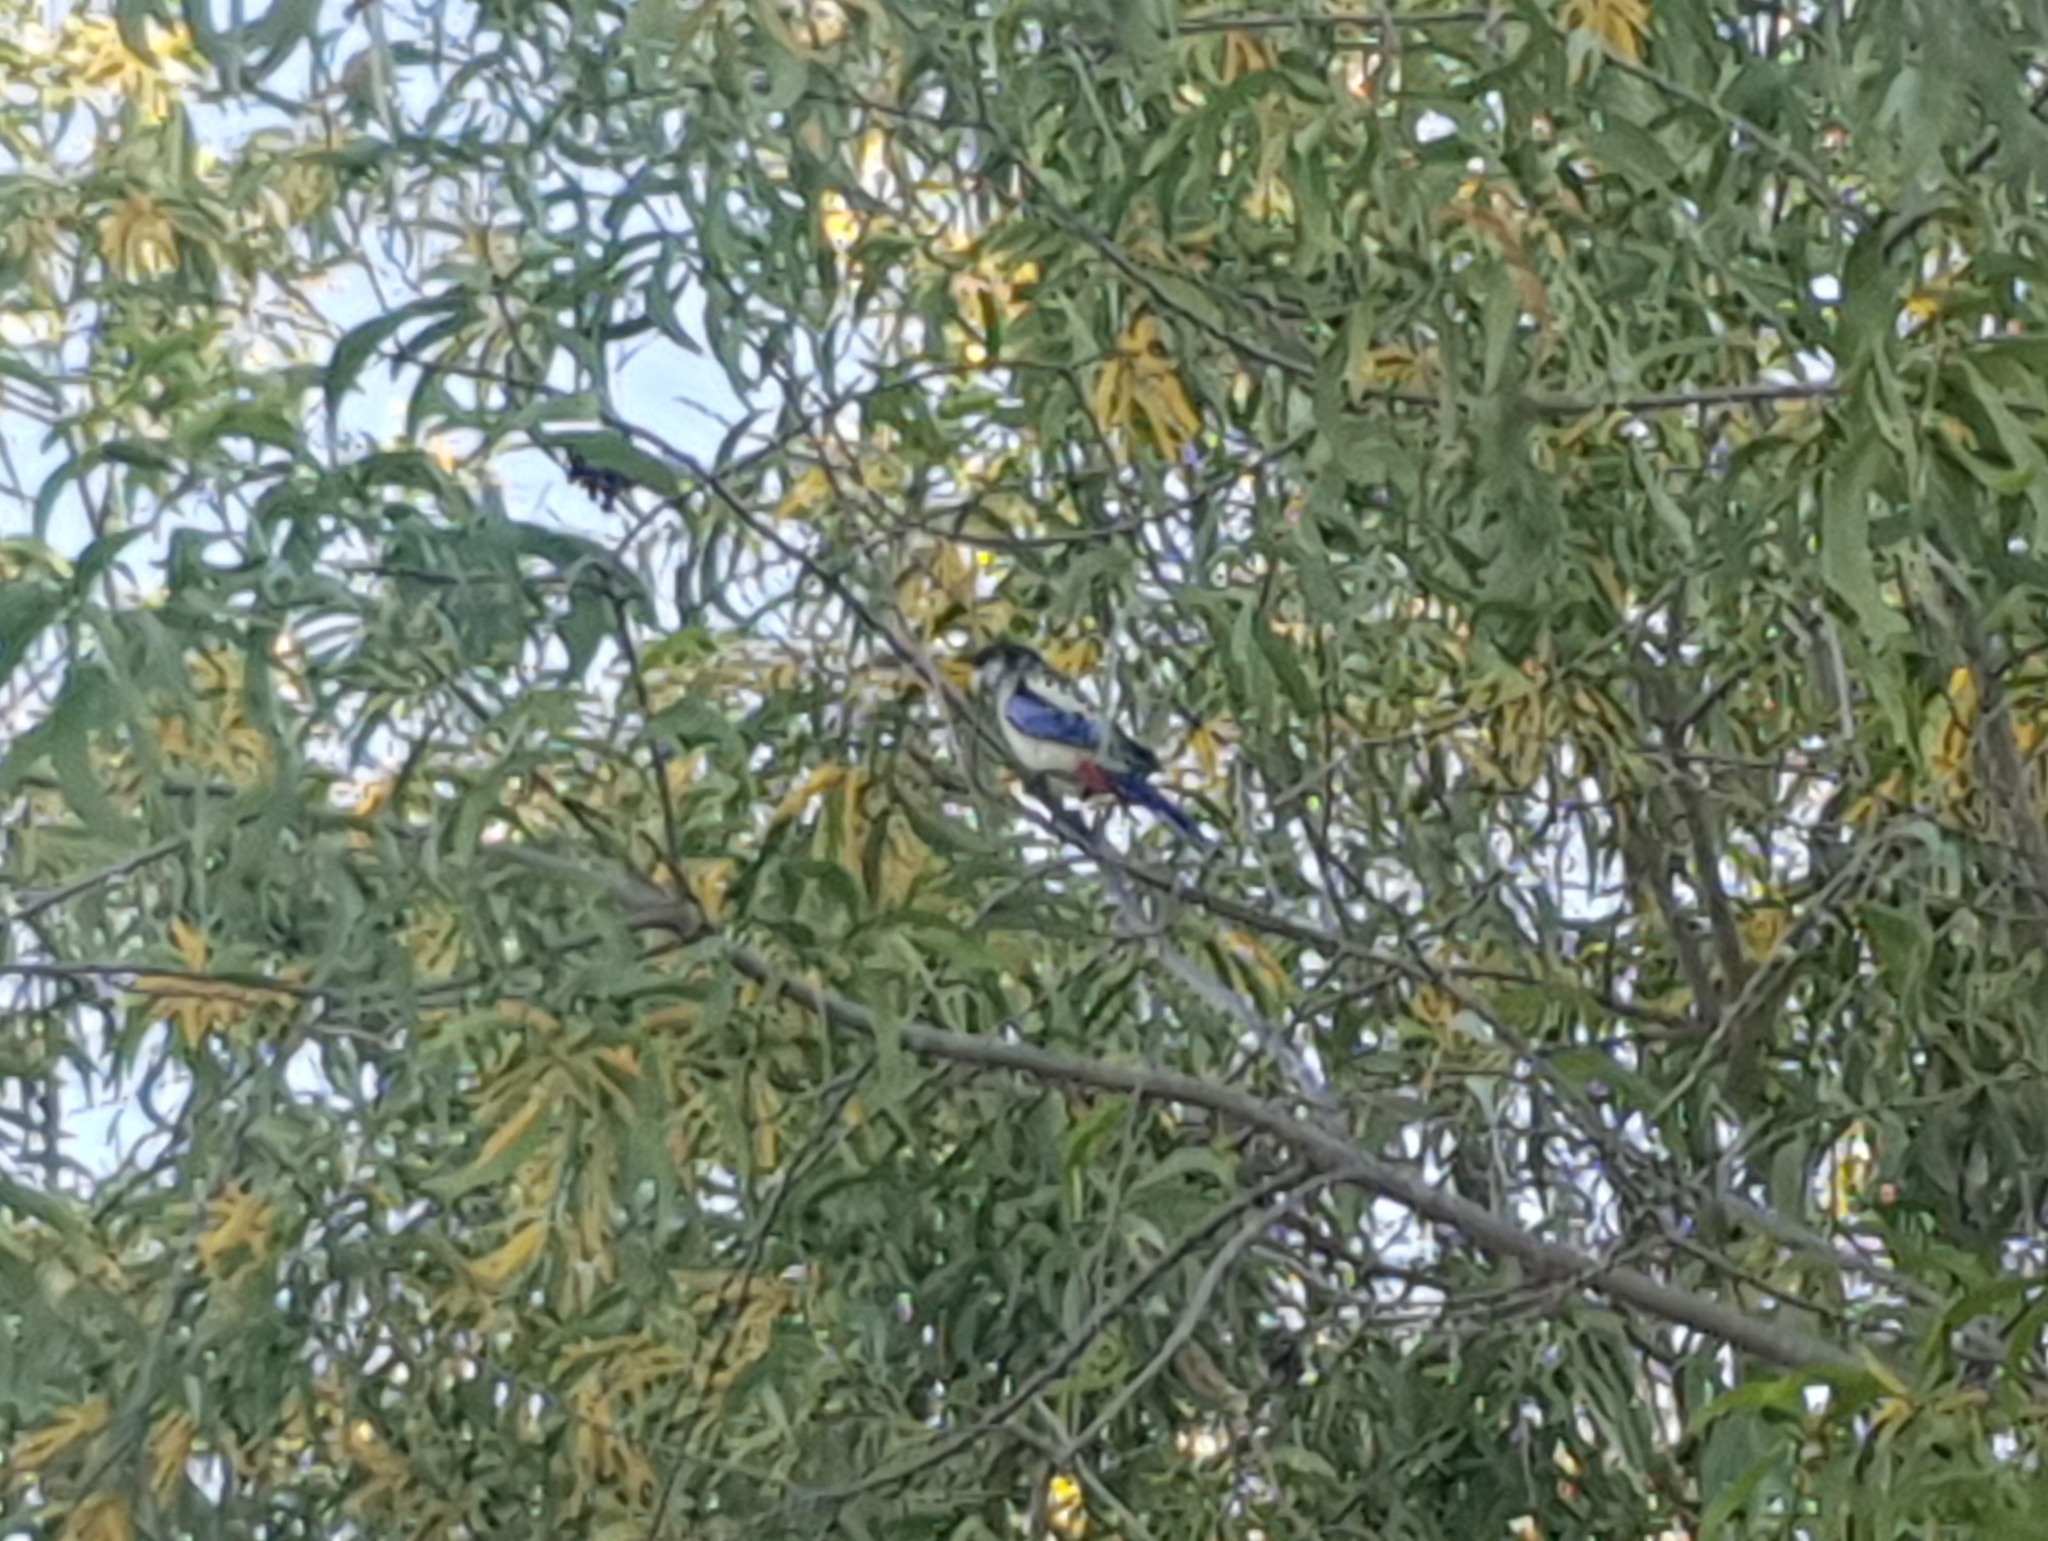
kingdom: Animalia
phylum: Chordata
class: Aves
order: Psittaciformes
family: Psittacidae
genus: Platycercus
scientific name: Platycercus venustus
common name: Northern rosella
